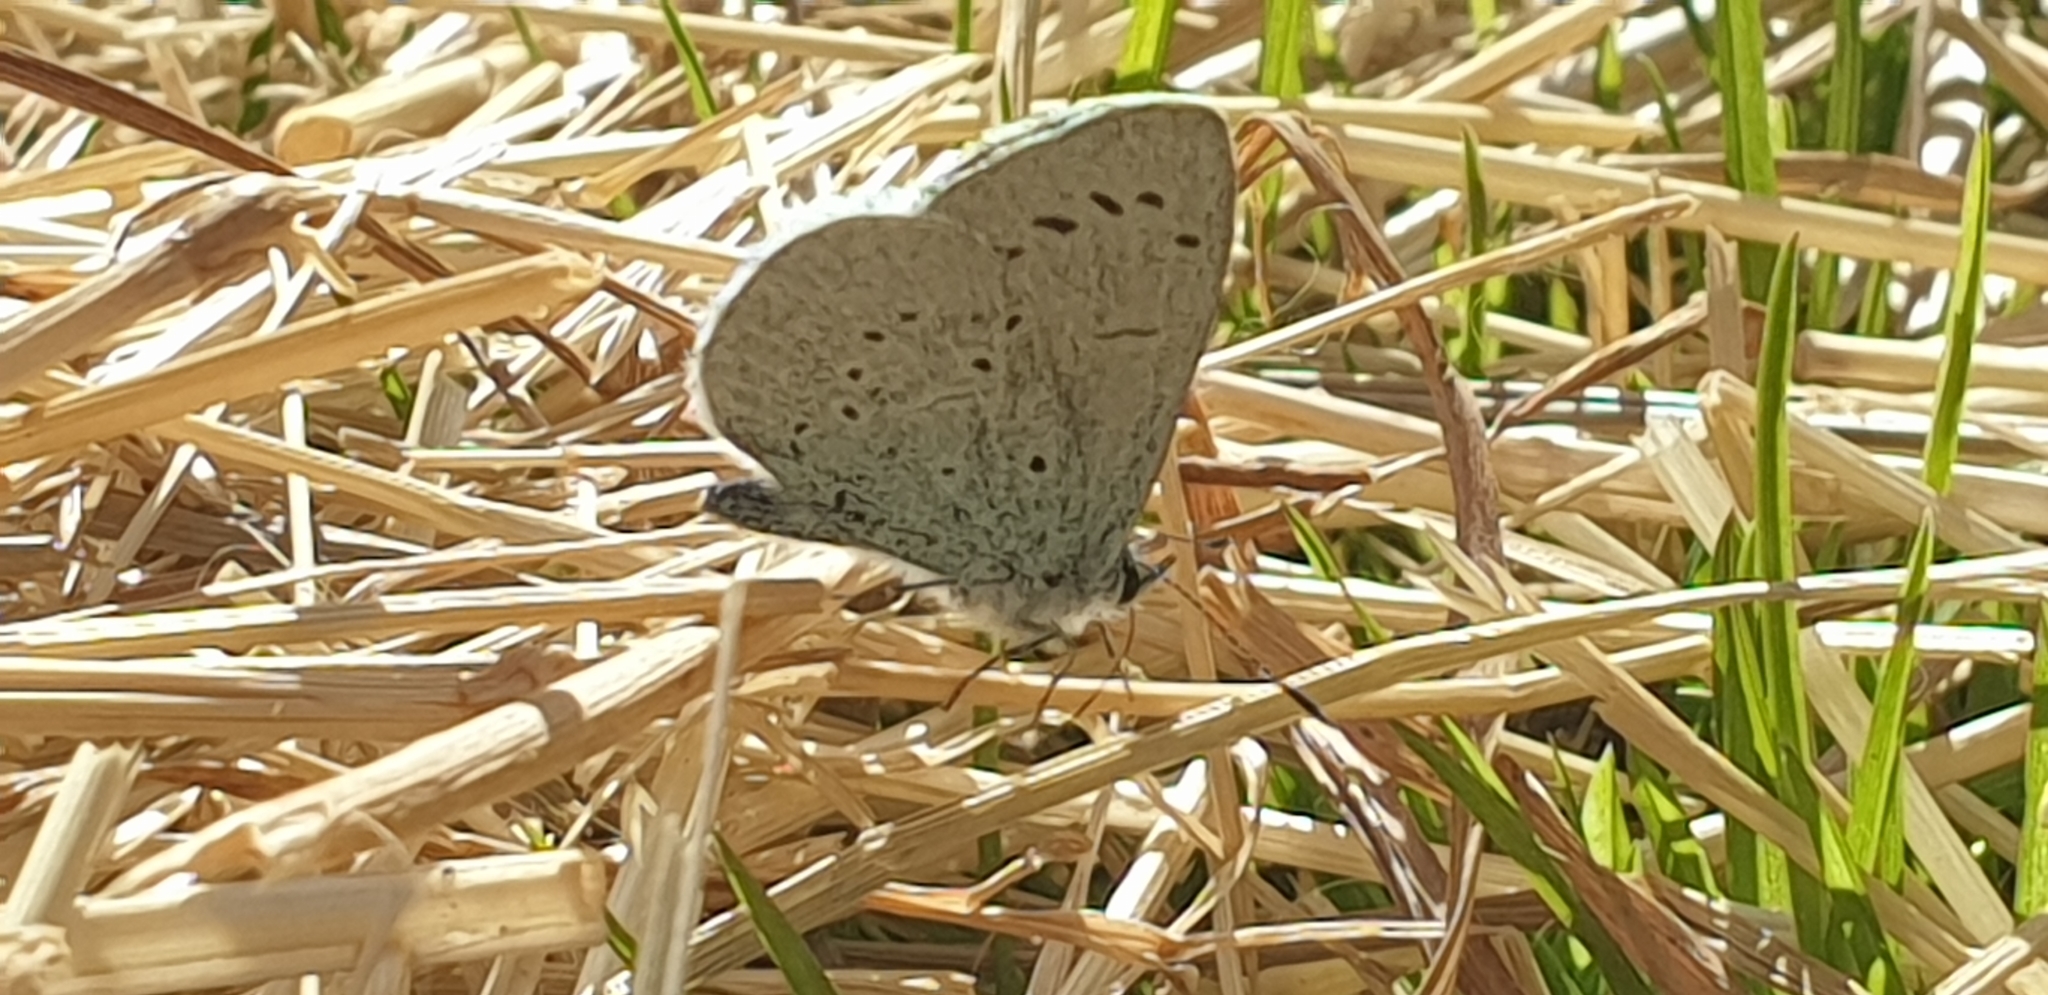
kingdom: Animalia
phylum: Arthropoda
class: Insecta
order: Lepidoptera
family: Lycaenidae
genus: Celastrina
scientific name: Celastrina argiolus
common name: Holly blue
